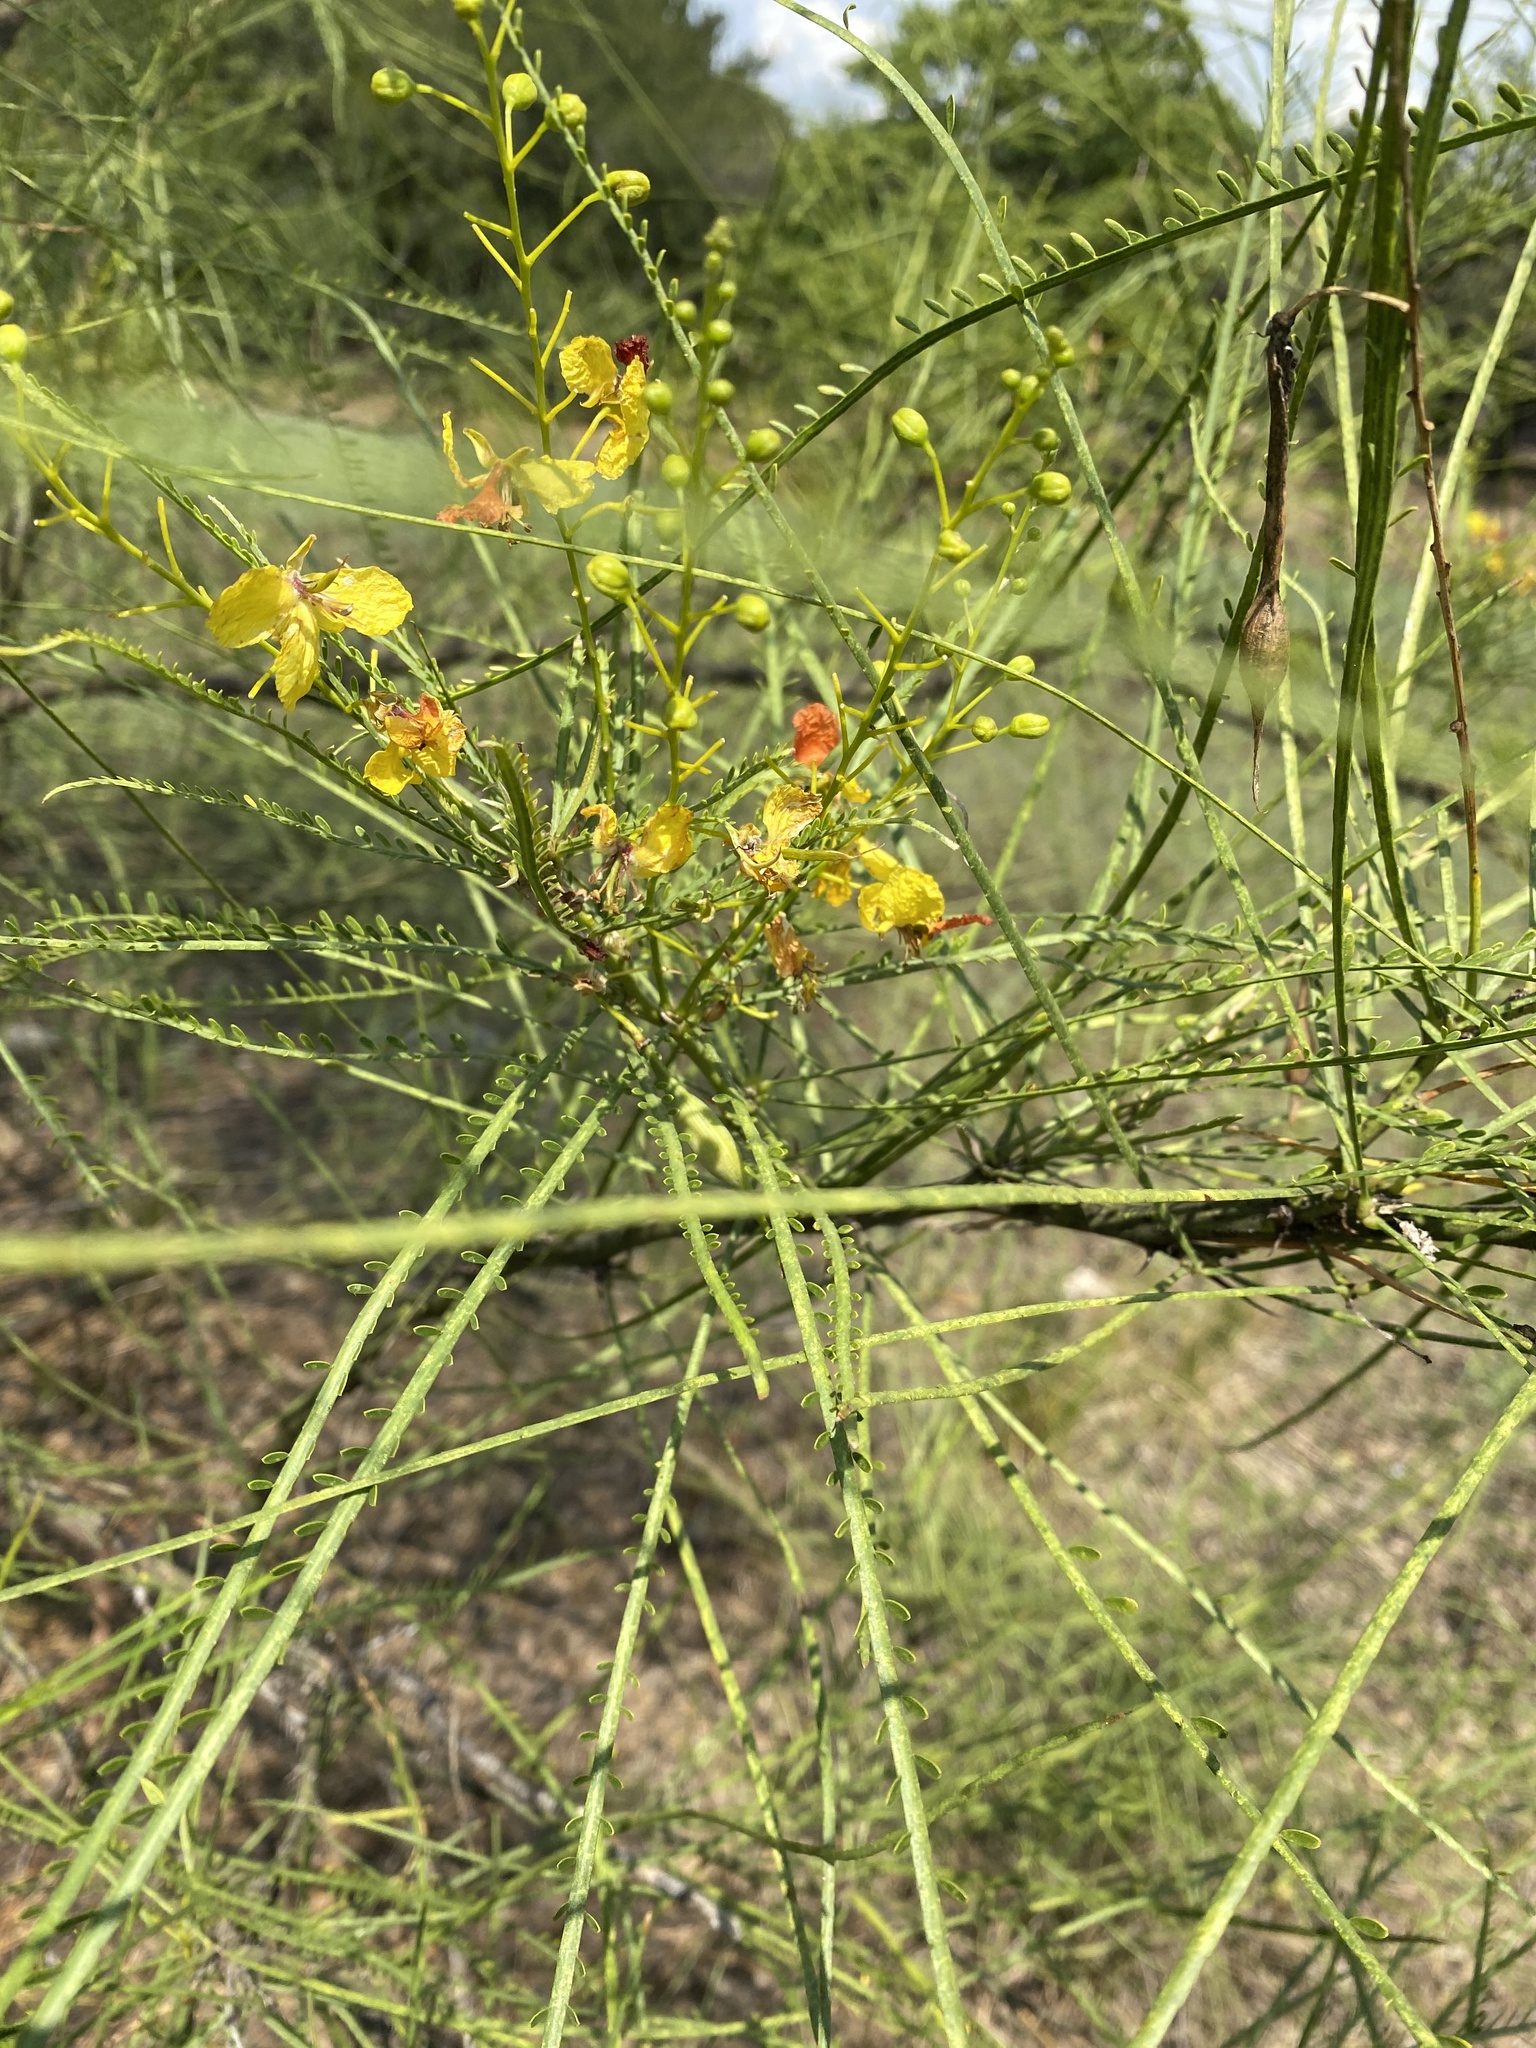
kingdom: Plantae
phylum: Tracheophyta
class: Magnoliopsida
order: Fabales
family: Fabaceae
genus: Parkinsonia
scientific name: Parkinsonia aculeata
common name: Jerusalem thorn
